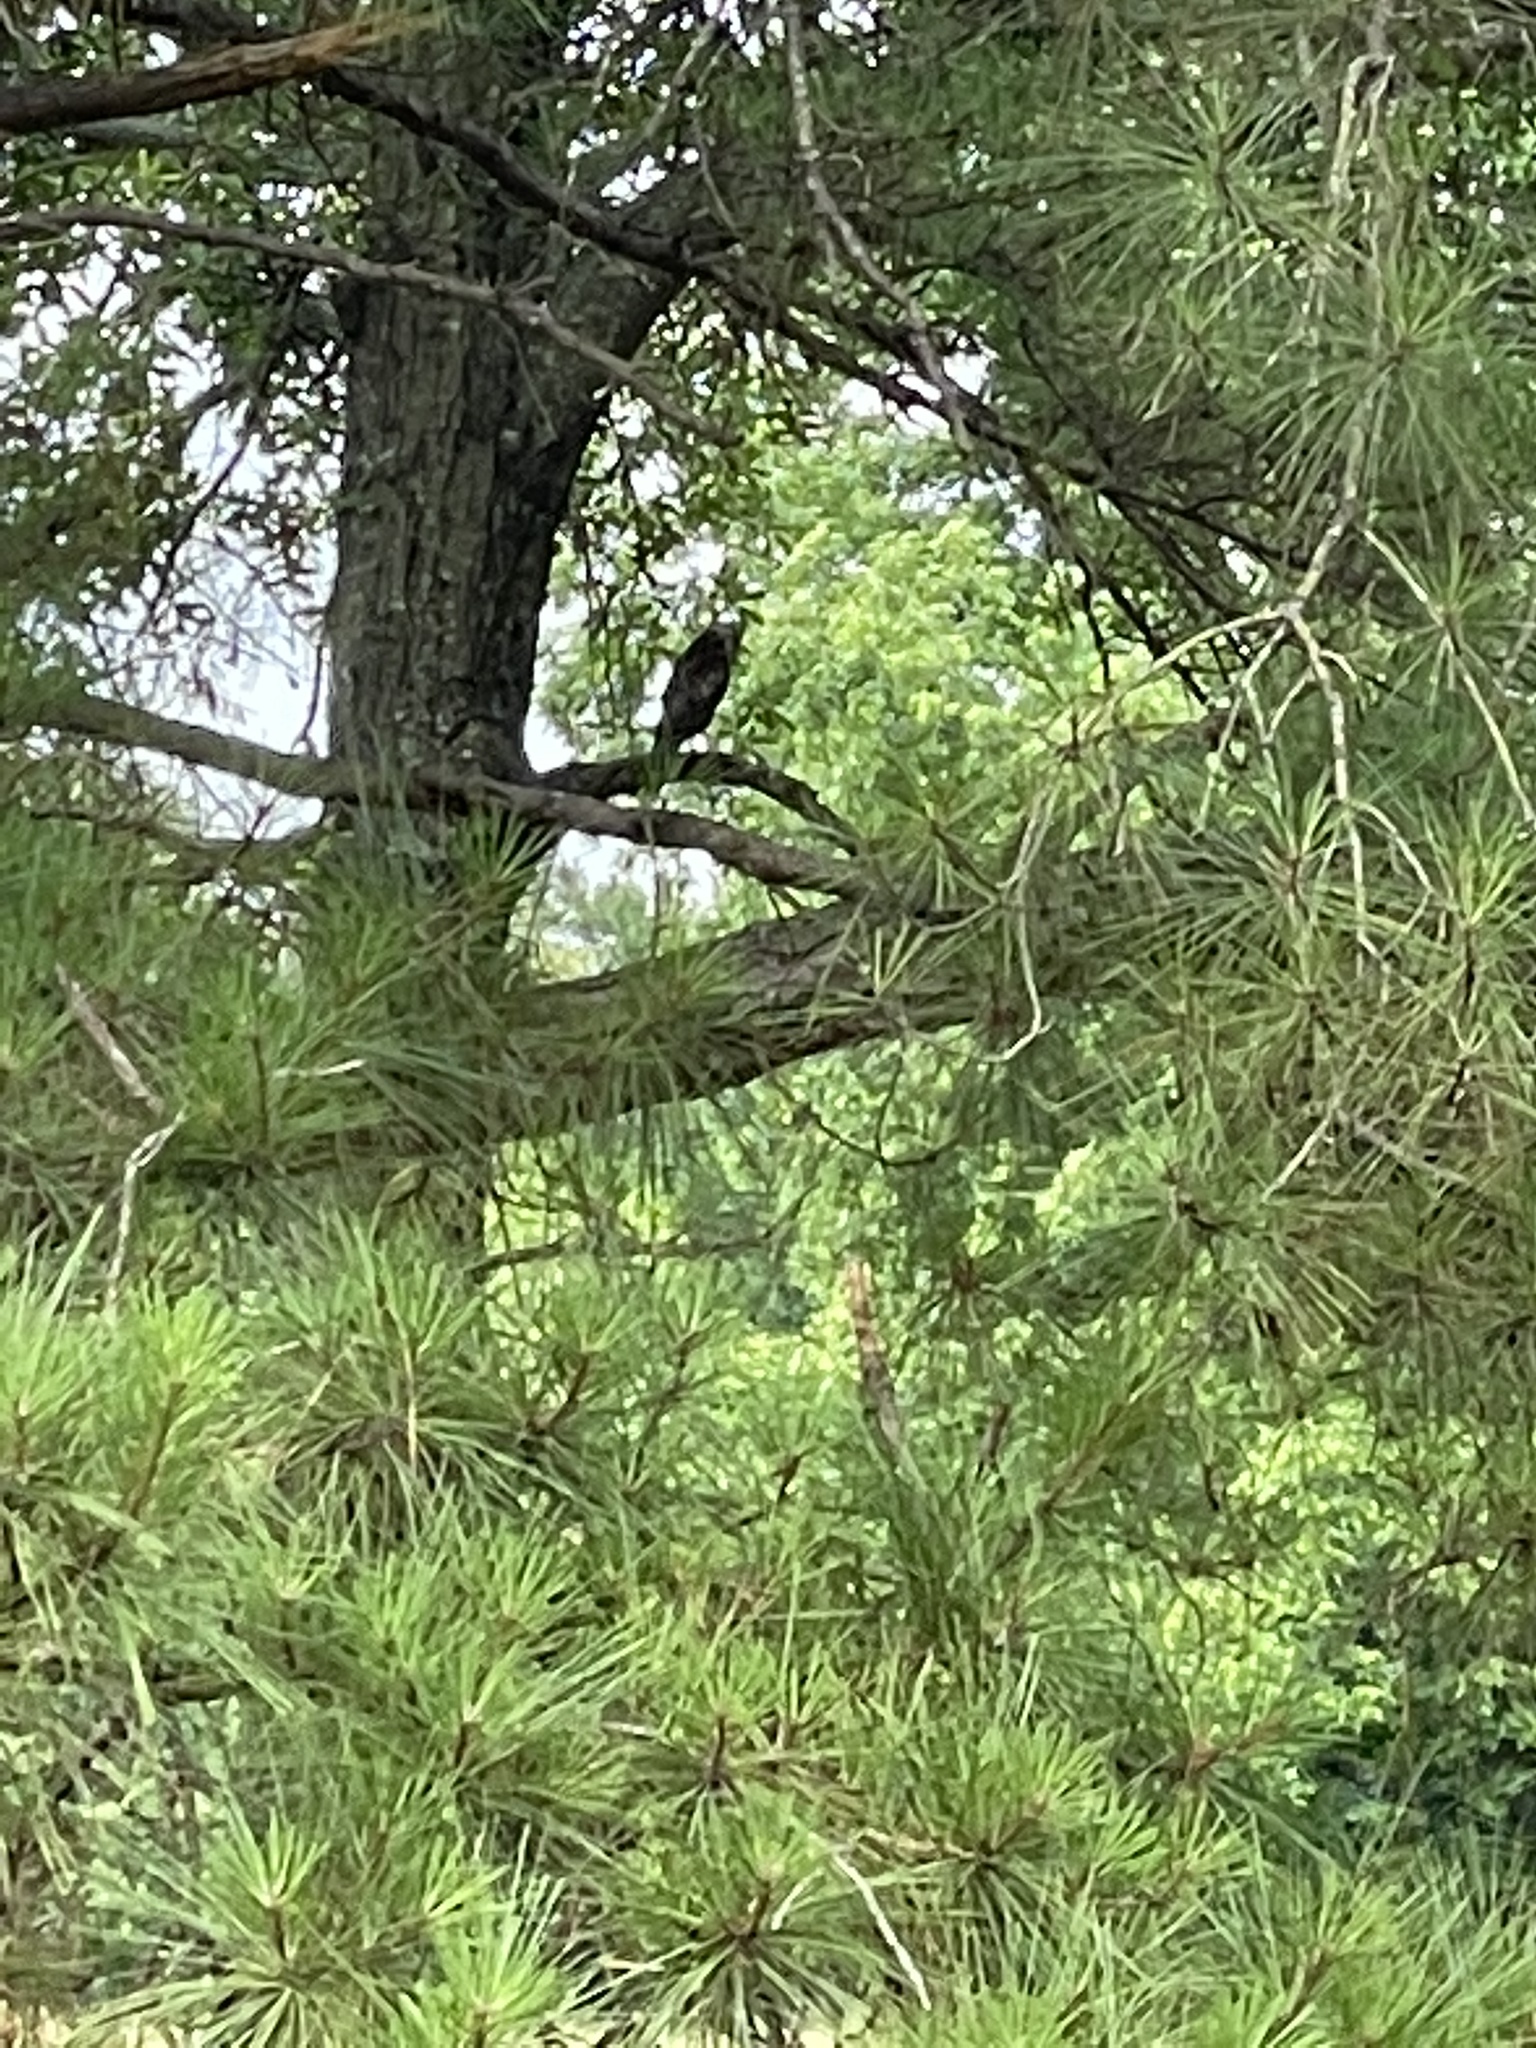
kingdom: Animalia
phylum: Chordata
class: Aves
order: Accipitriformes
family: Accipitridae
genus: Buteo
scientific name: Buteo platypterus
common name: Broad-winged hawk
